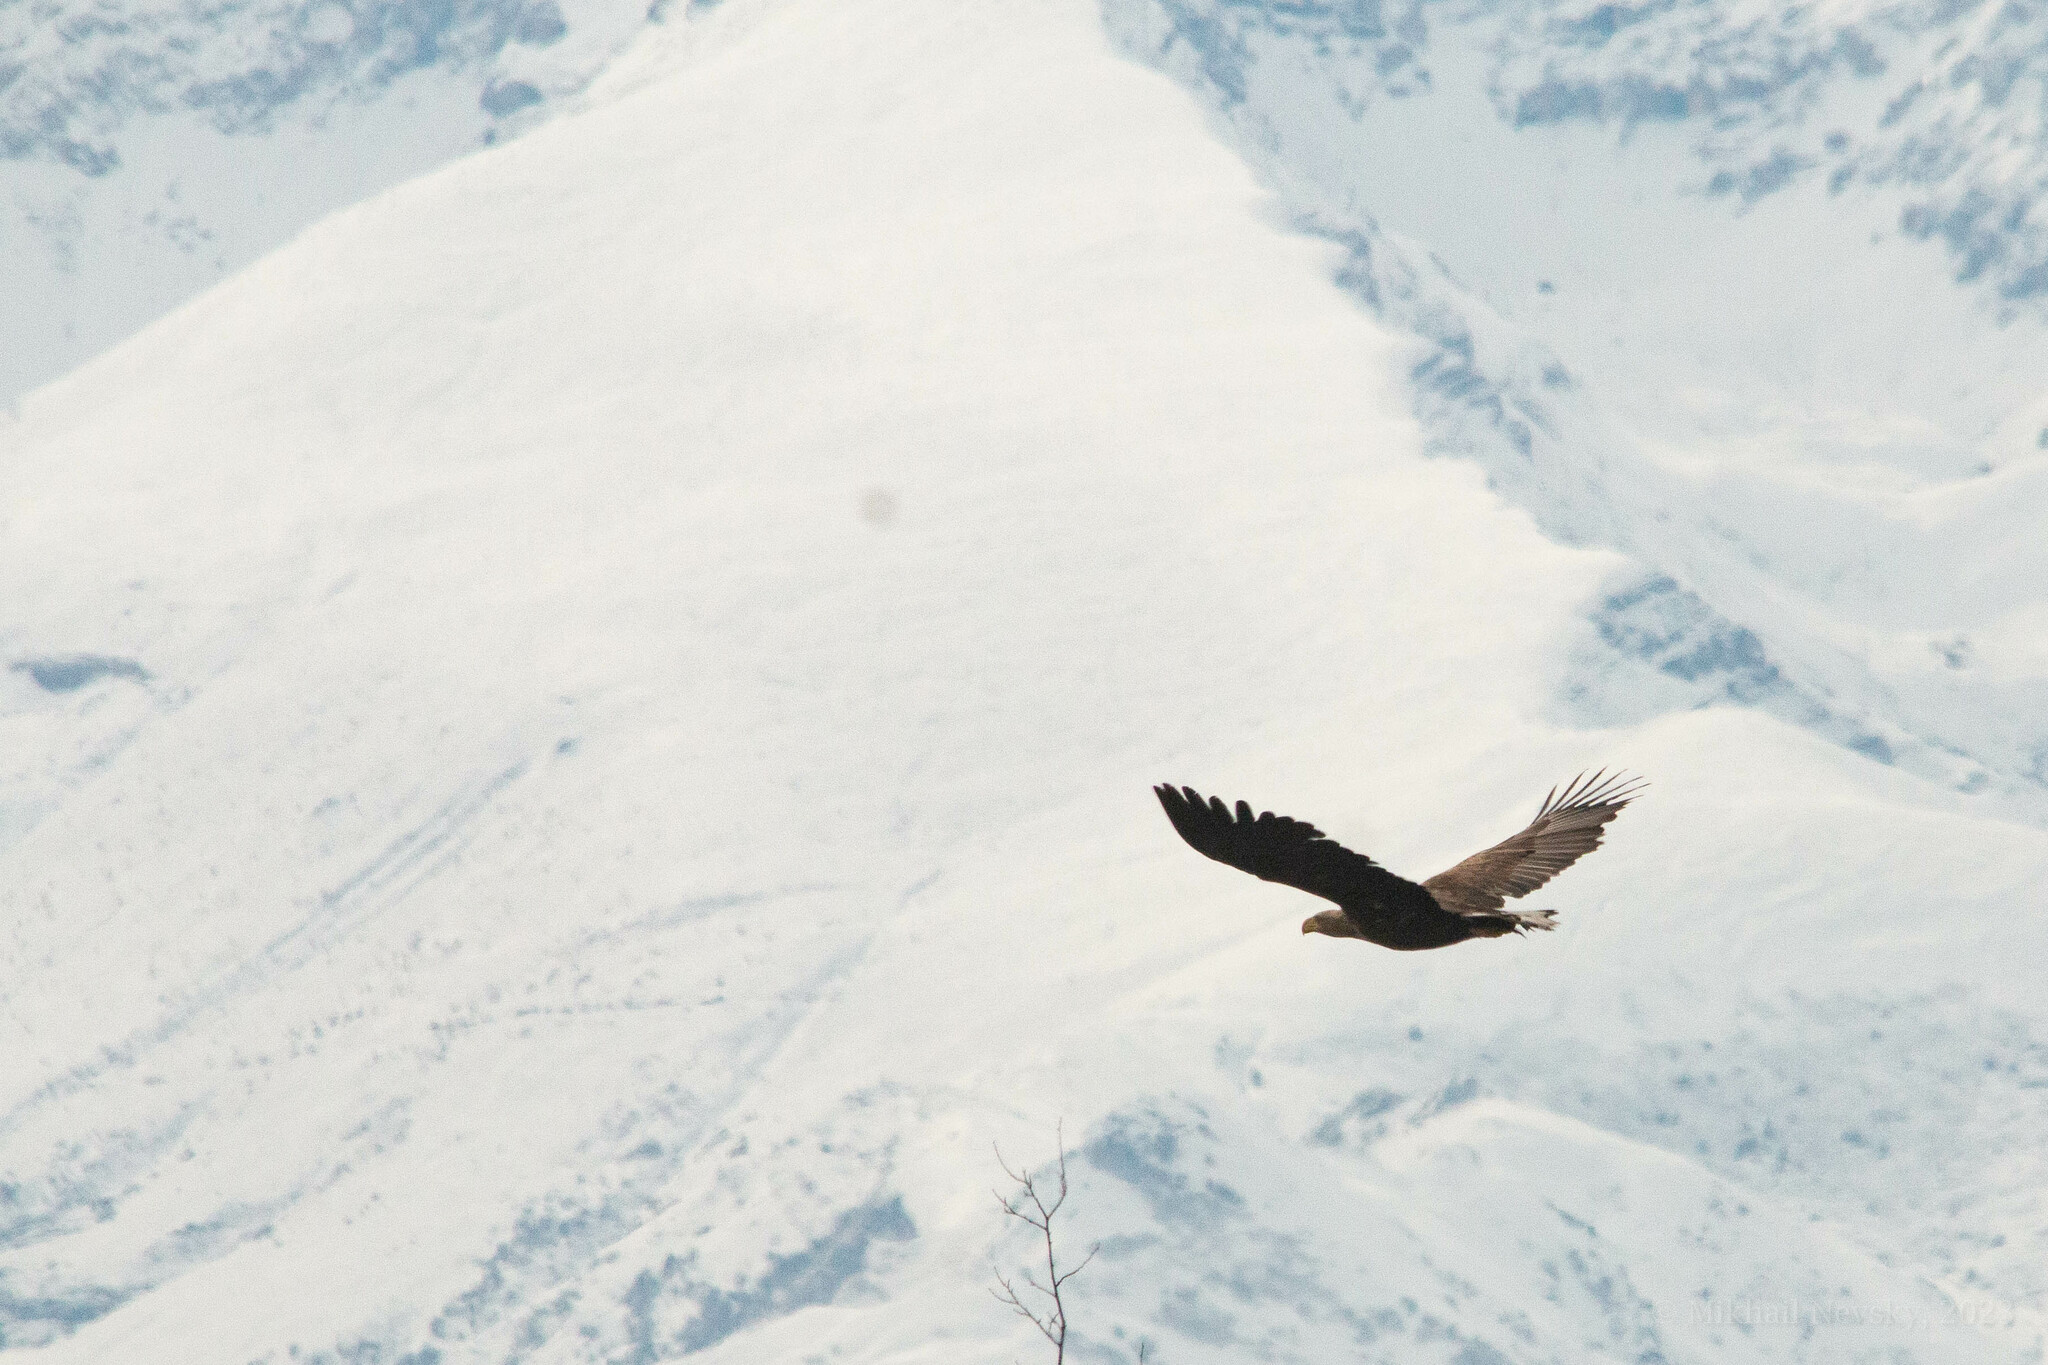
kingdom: Animalia
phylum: Chordata
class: Aves
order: Accipitriformes
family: Accipitridae
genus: Haliaeetus
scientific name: Haliaeetus albicilla
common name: White-tailed eagle
